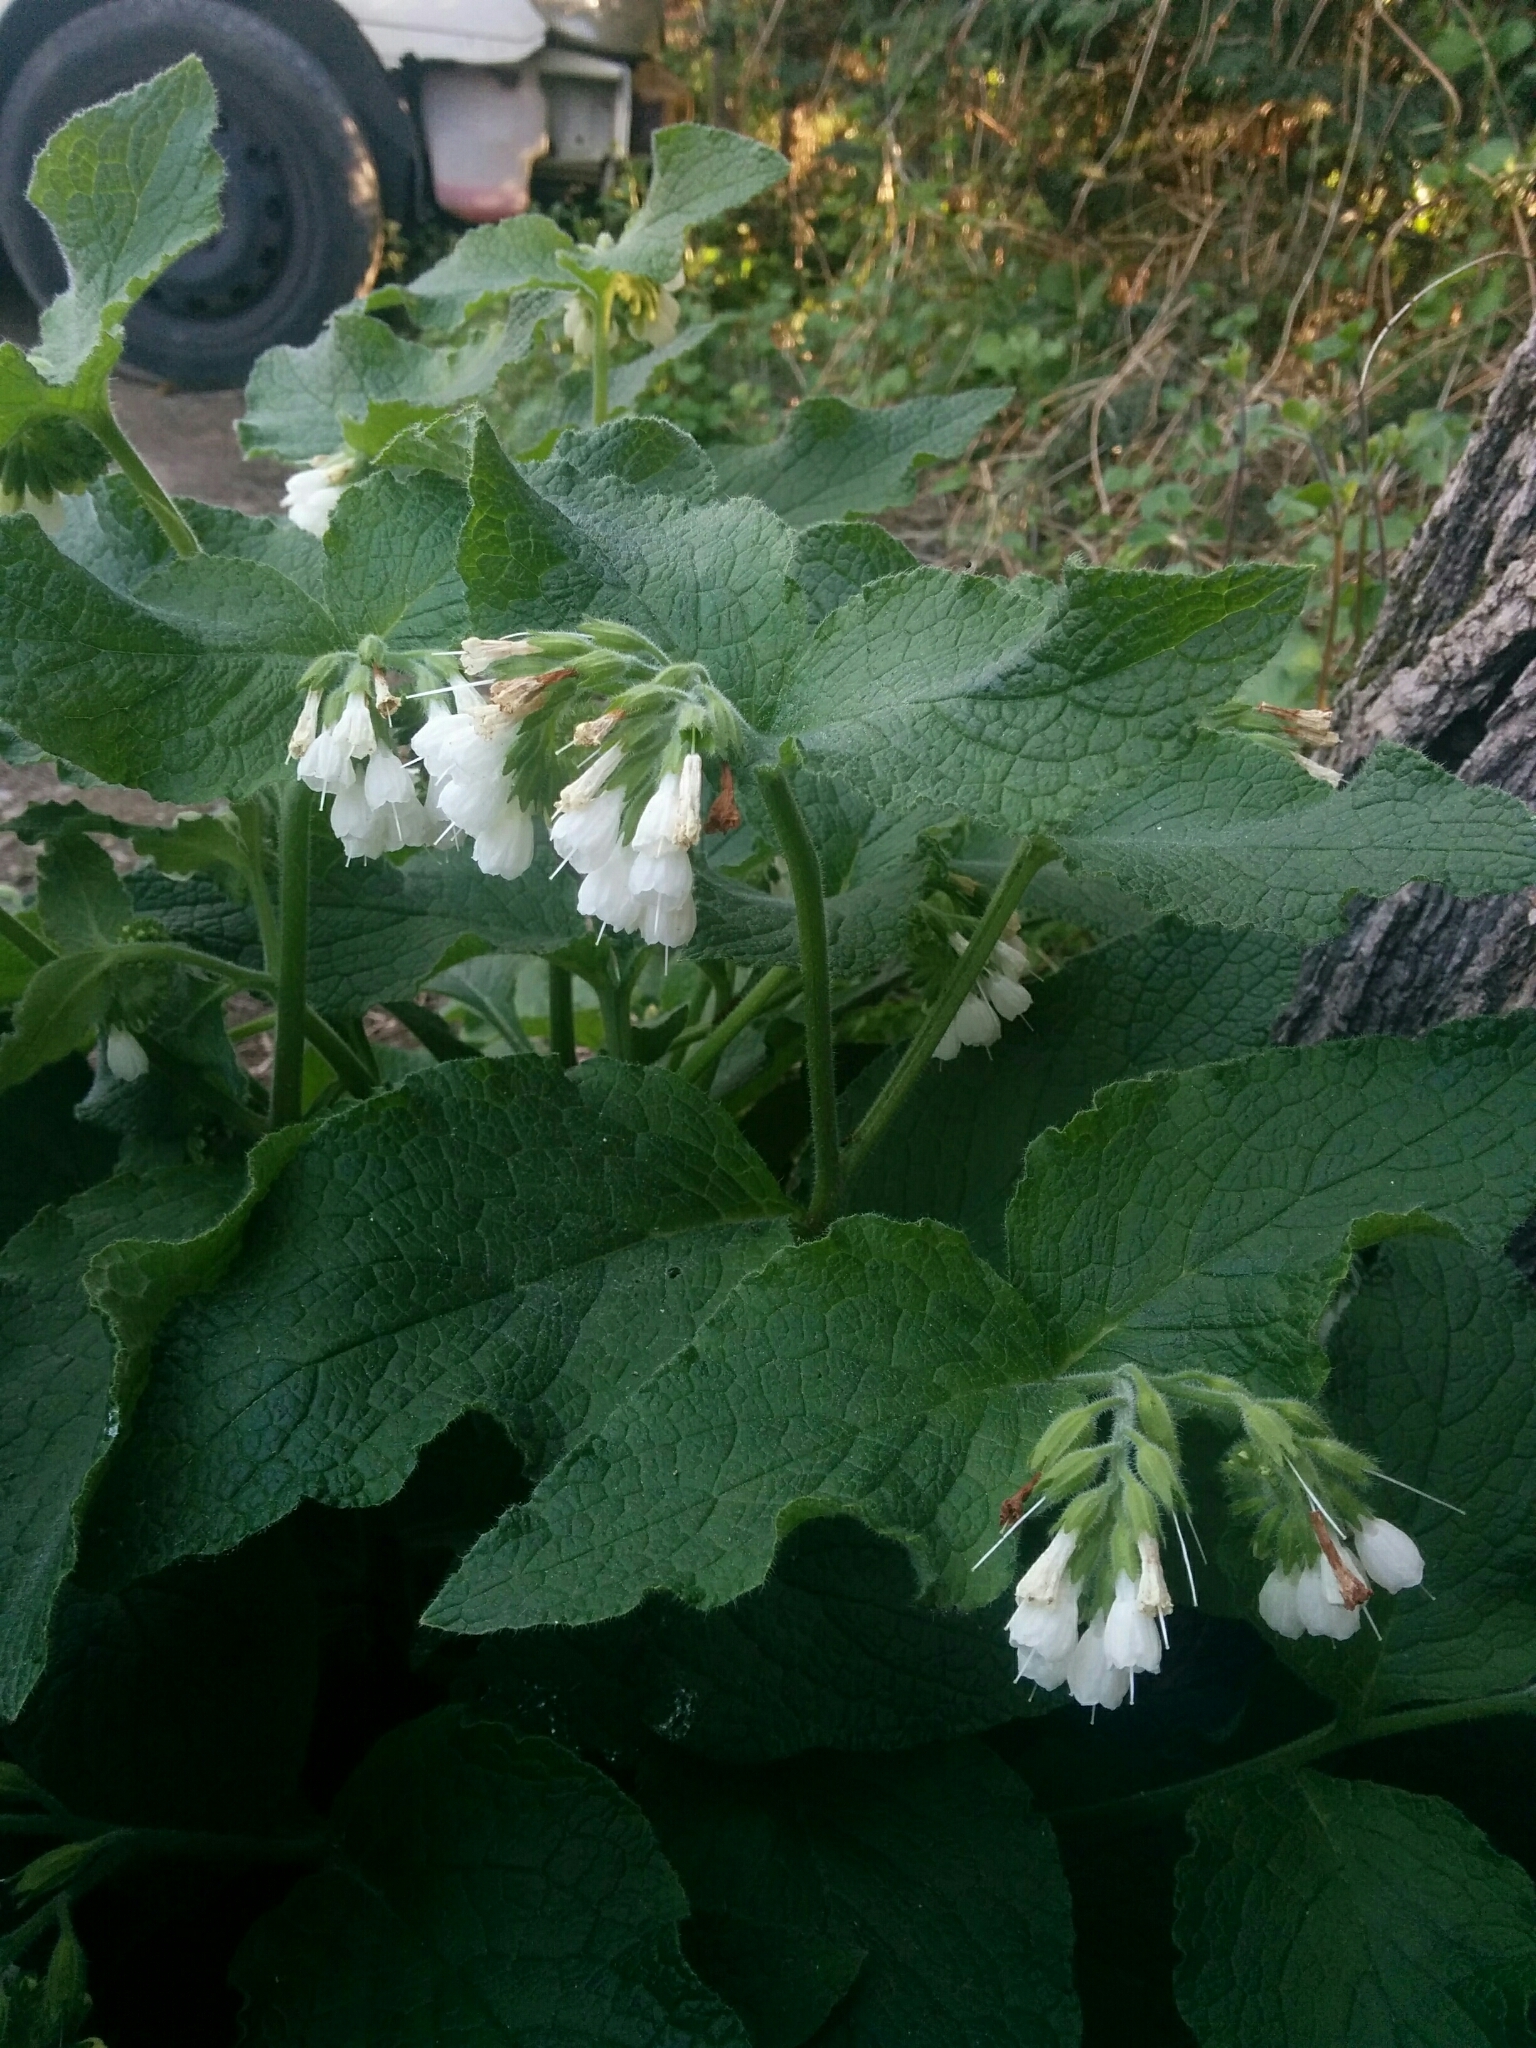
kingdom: Plantae
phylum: Tracheophyta
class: Magnoliopsida
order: Boraginales
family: Boraginaceae
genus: Symphytum
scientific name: Symphytum orientale
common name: White comfrey
